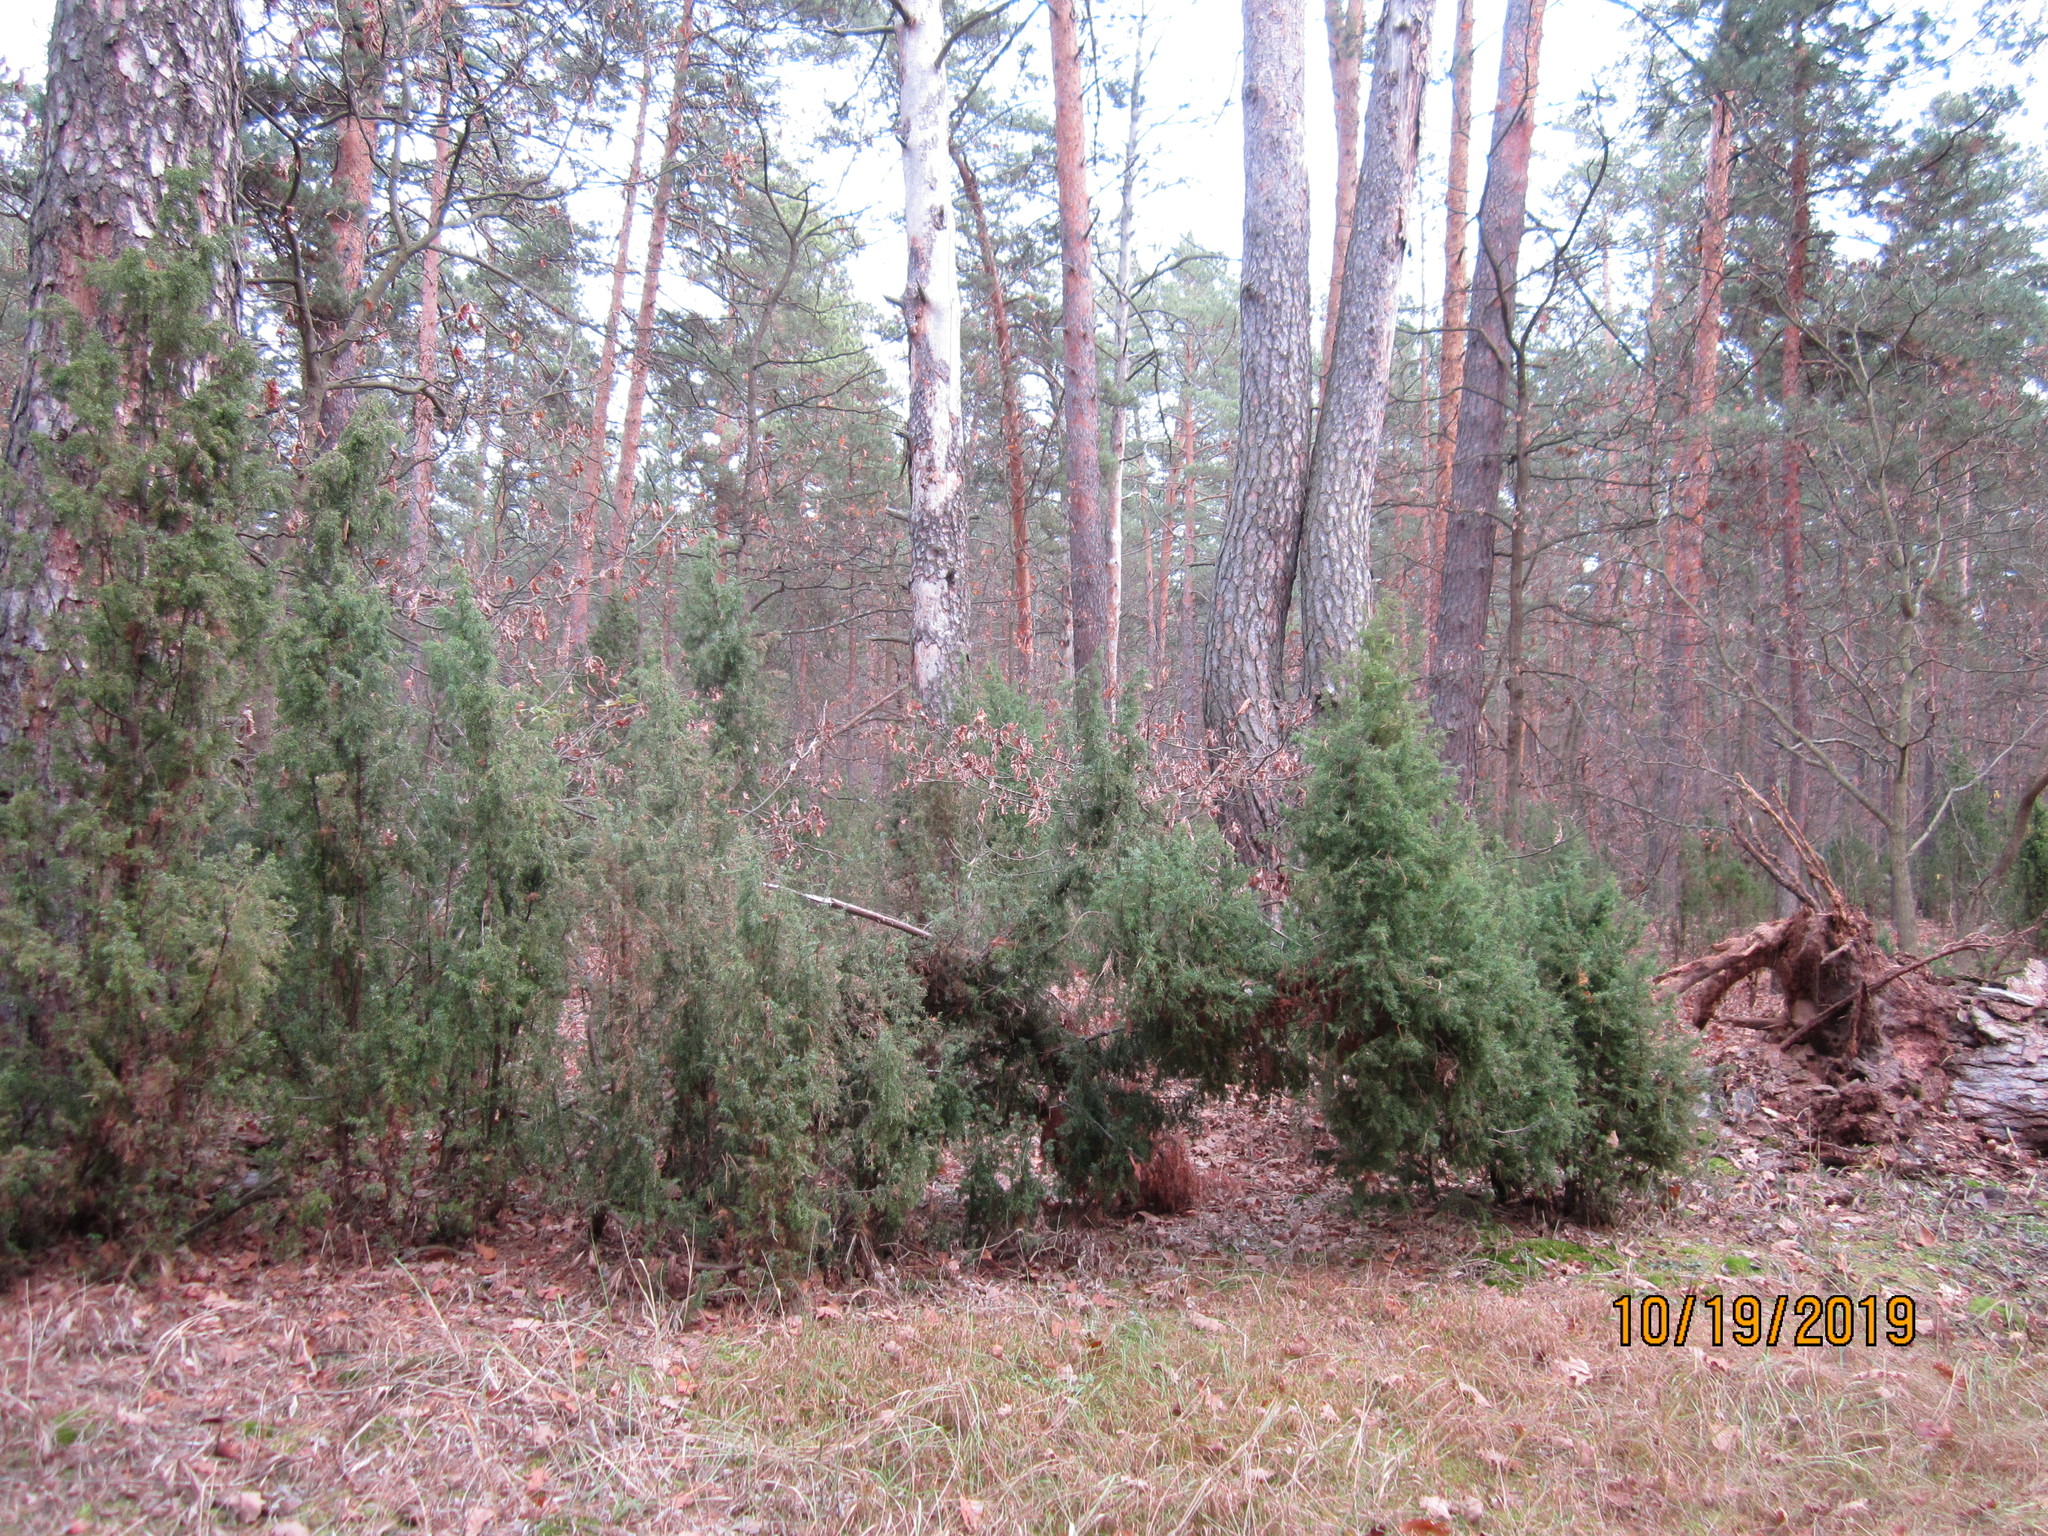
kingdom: Plantae
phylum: Tracheophyta
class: Pinopsida
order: Pinales
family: Cupressaceae
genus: Juniperus
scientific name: Juniperus communis
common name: Common juniper
